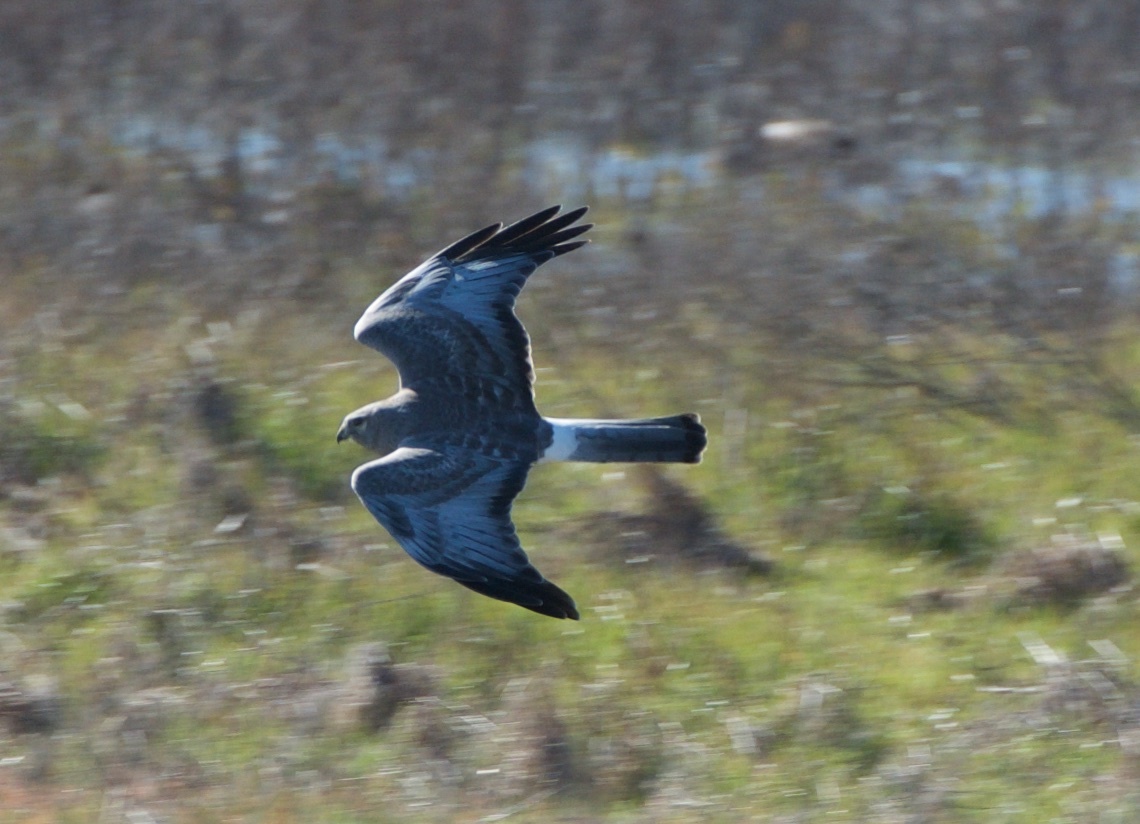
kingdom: Animalia
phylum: Chordata
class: Aves
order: Accipitriformes
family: Accipitridae
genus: Circus
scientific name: Circus cyaneus
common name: Hen harrier
